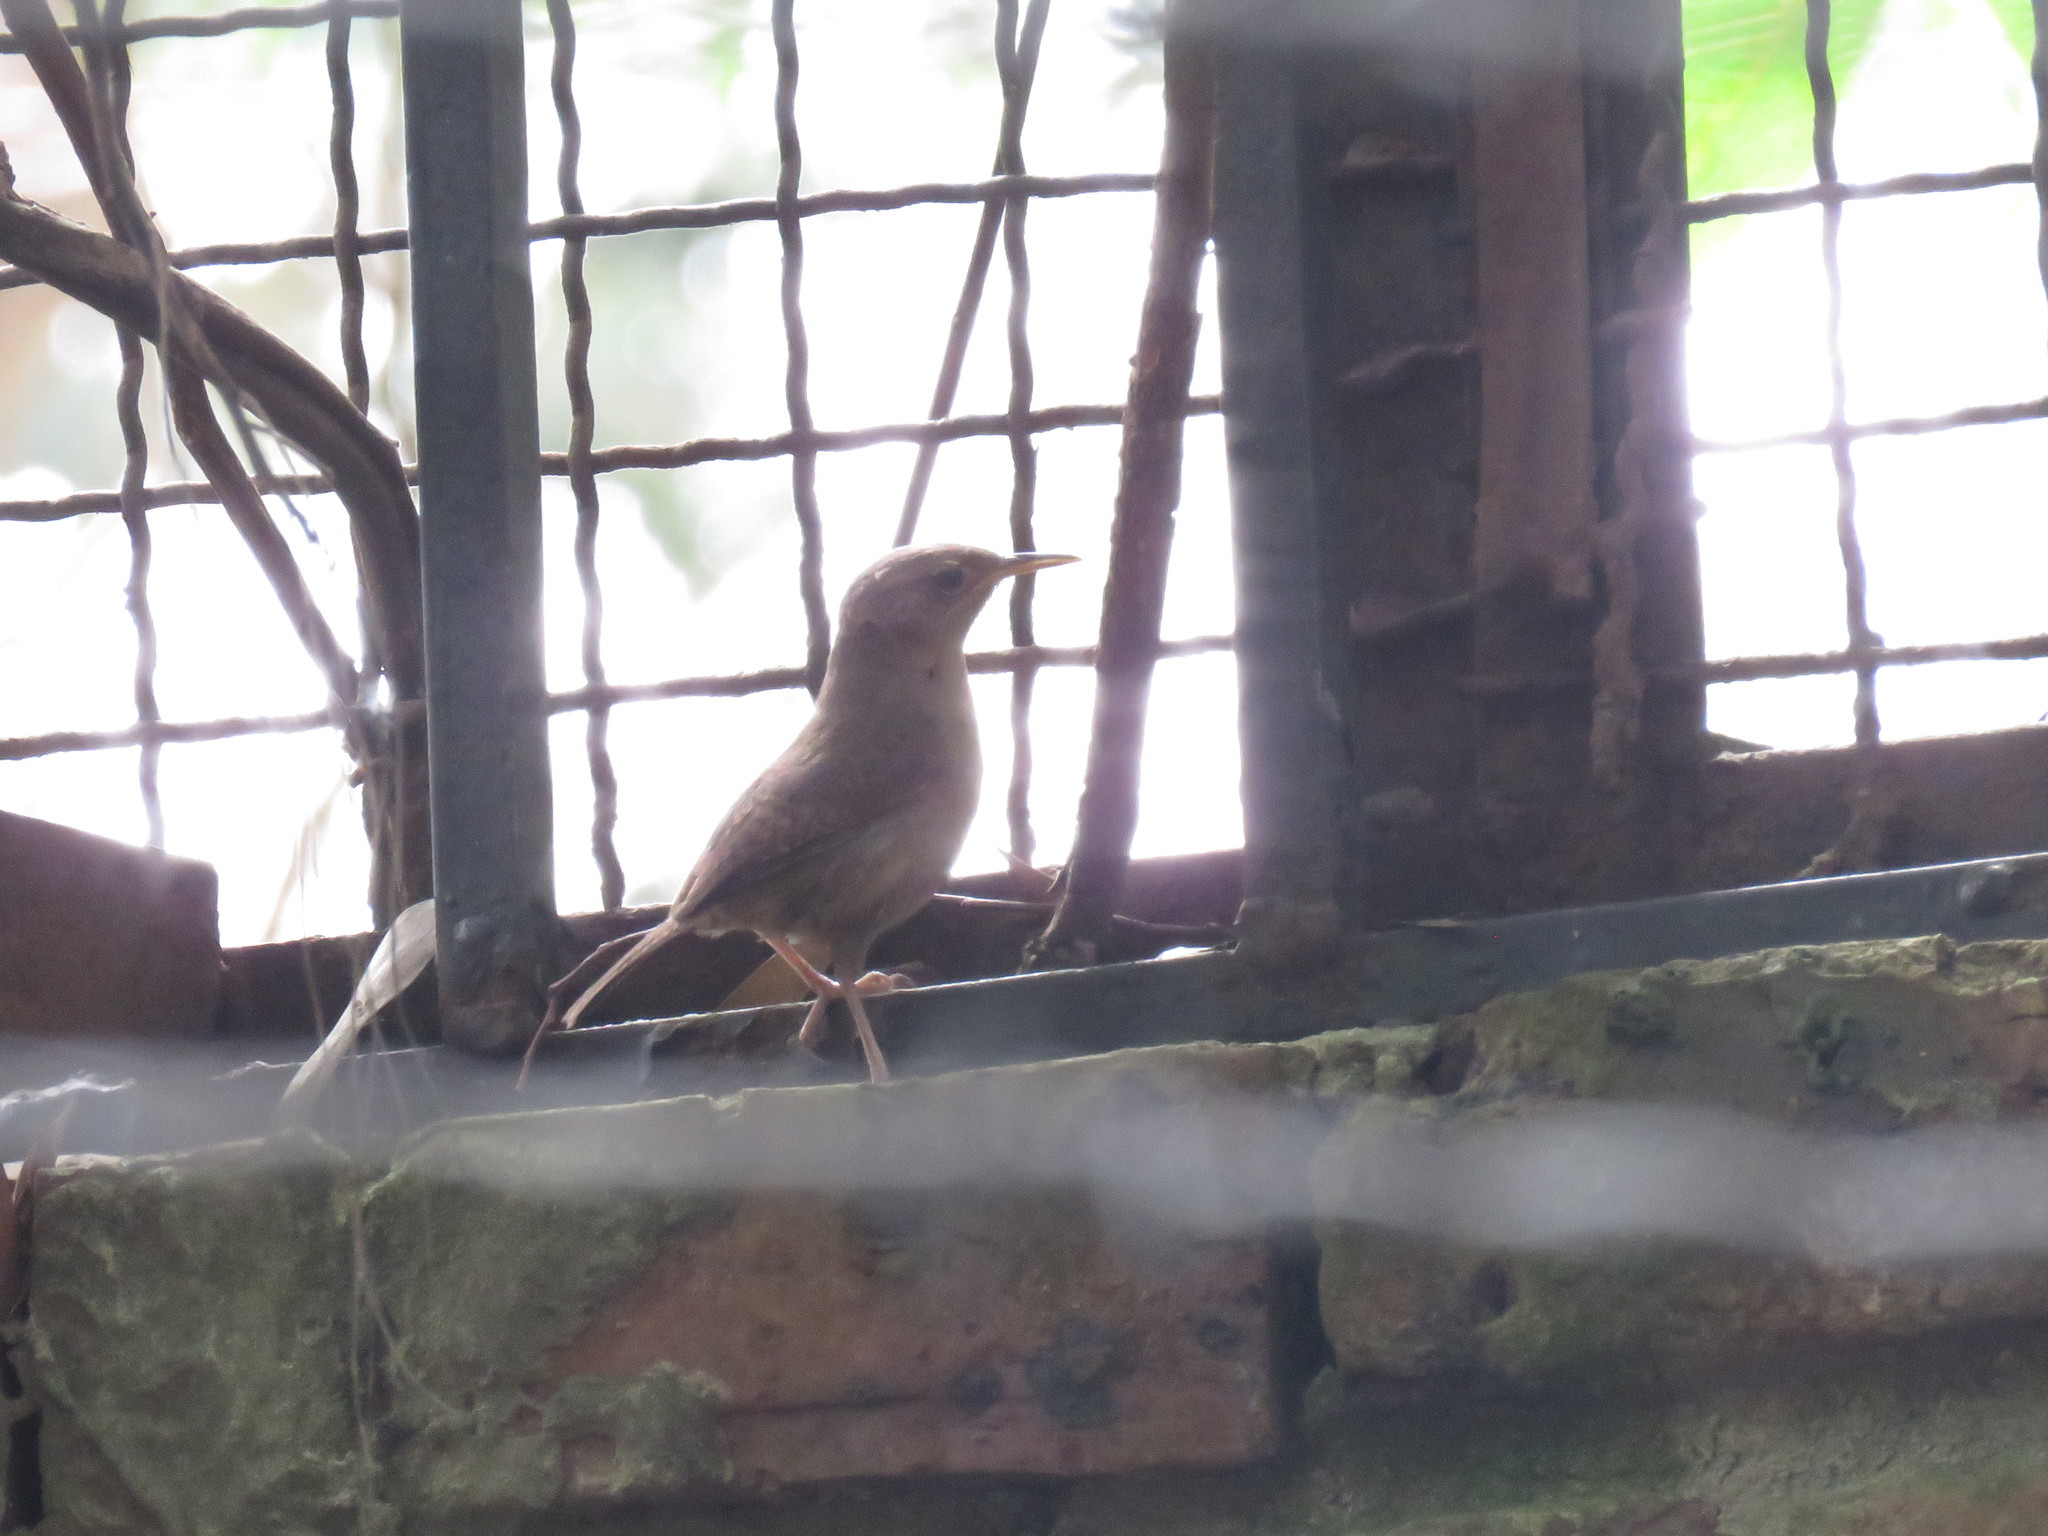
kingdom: Animalia
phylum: Chordata
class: Aves
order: Passeriformes
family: Troglodytidae
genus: Troglodytes
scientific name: Troglodytes aedon
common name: House wren
